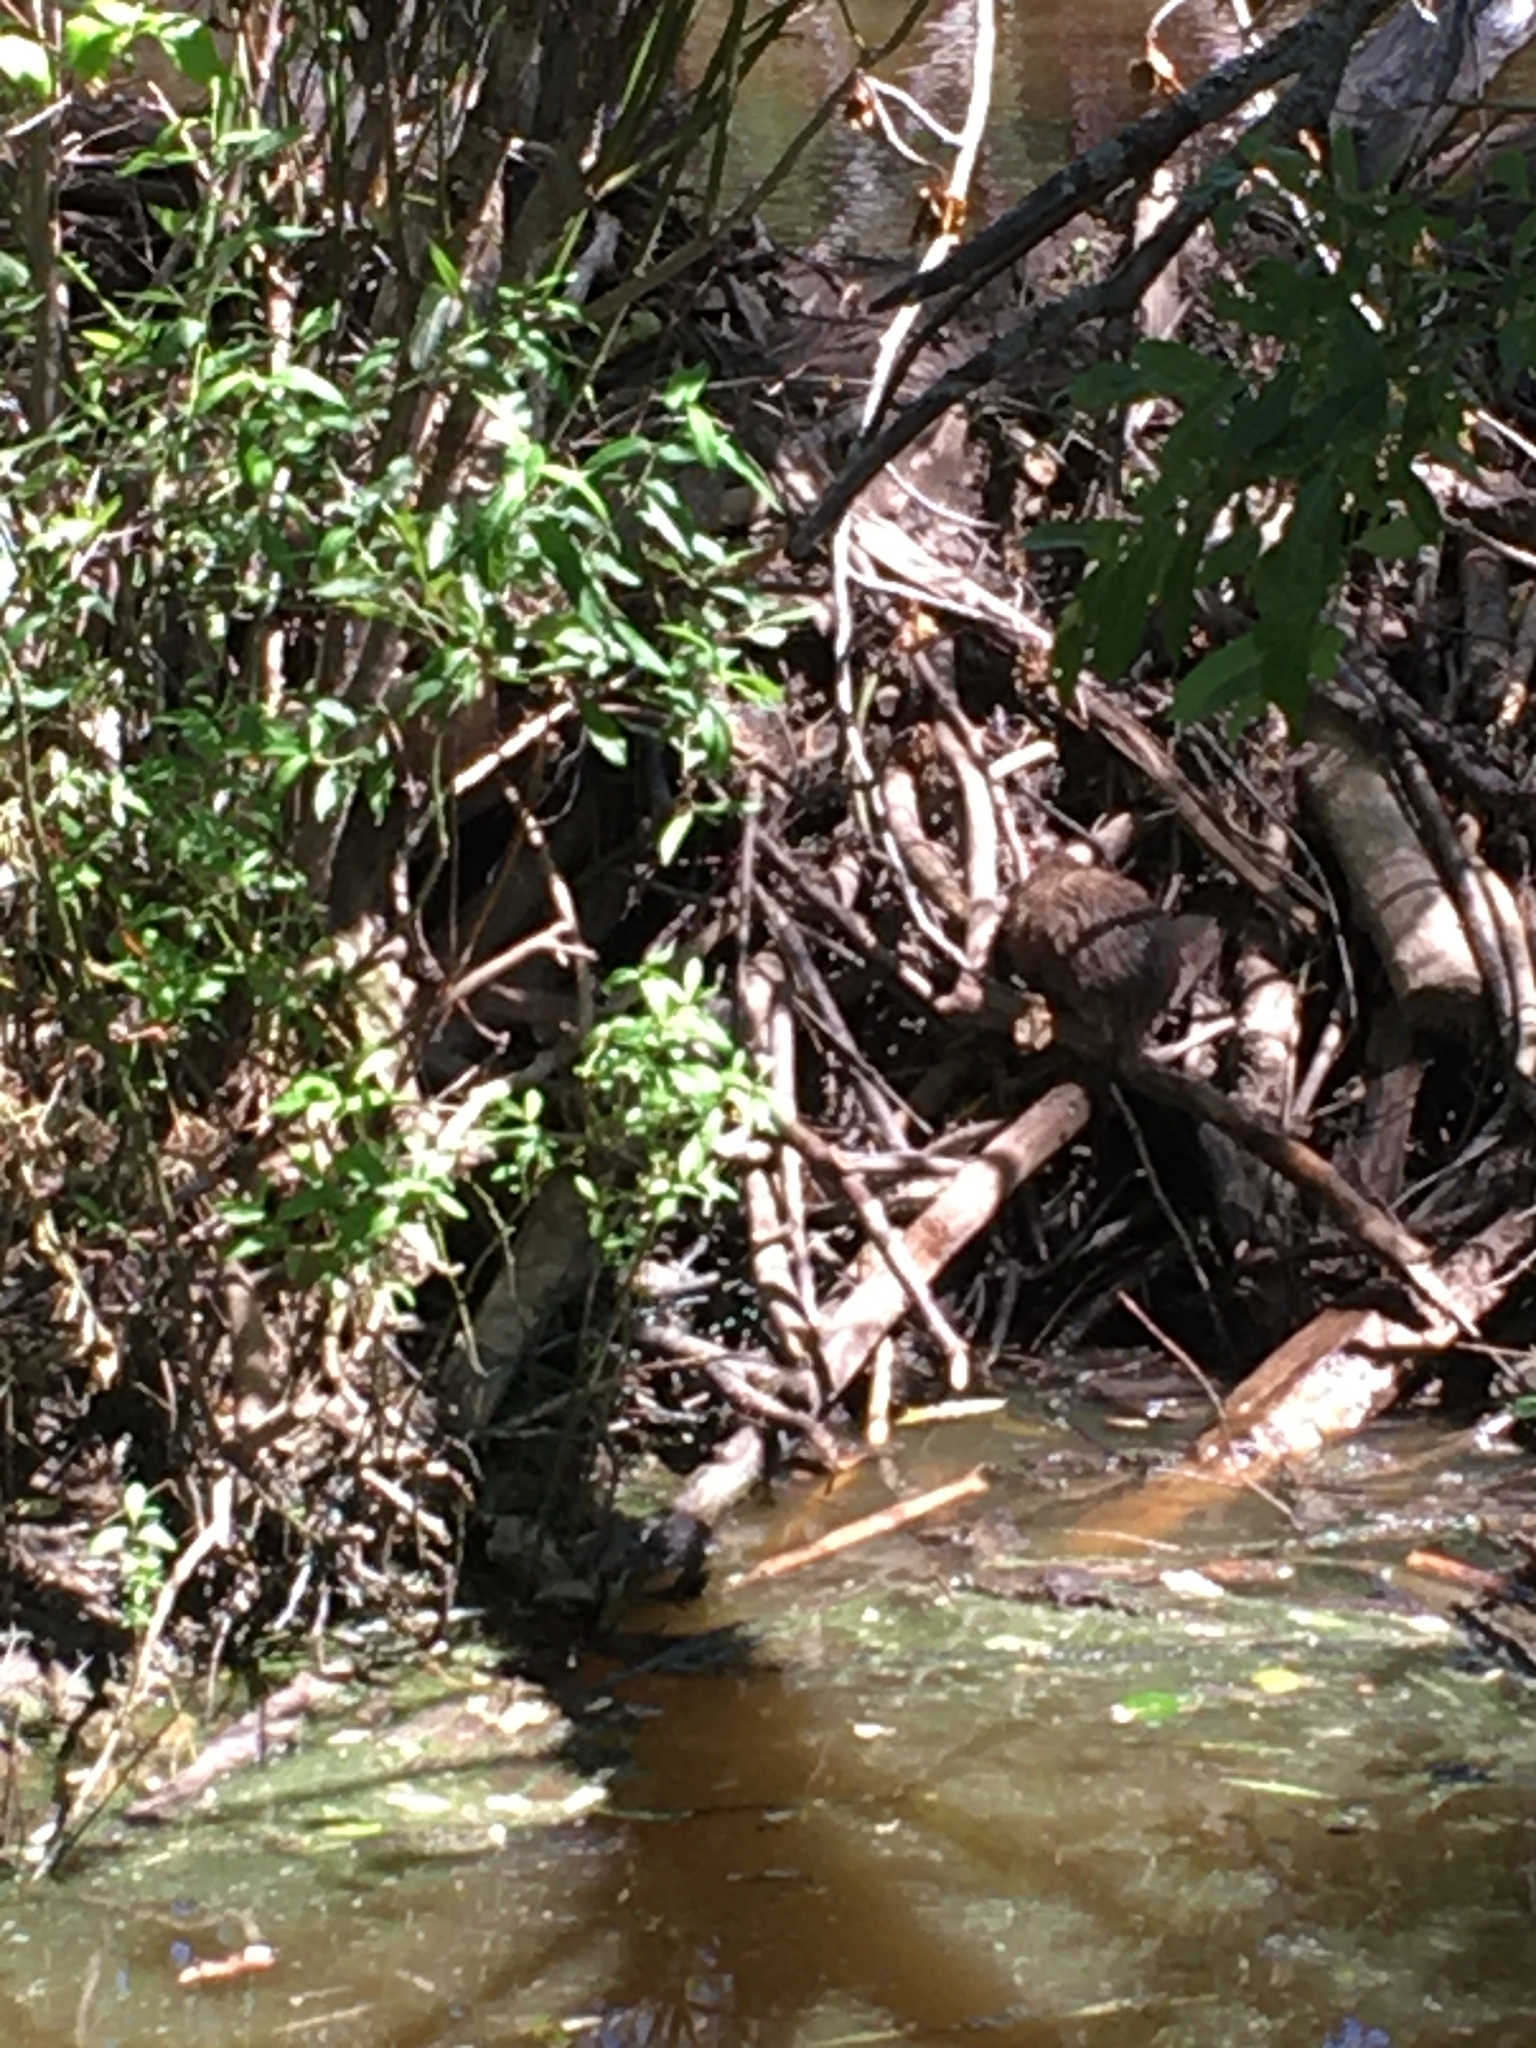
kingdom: Animalia
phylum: Chordata
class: Mammalia
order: Rodentia
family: Cricetidae
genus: Ondatra
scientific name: Ondatra zibethicus
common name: Muskrat
